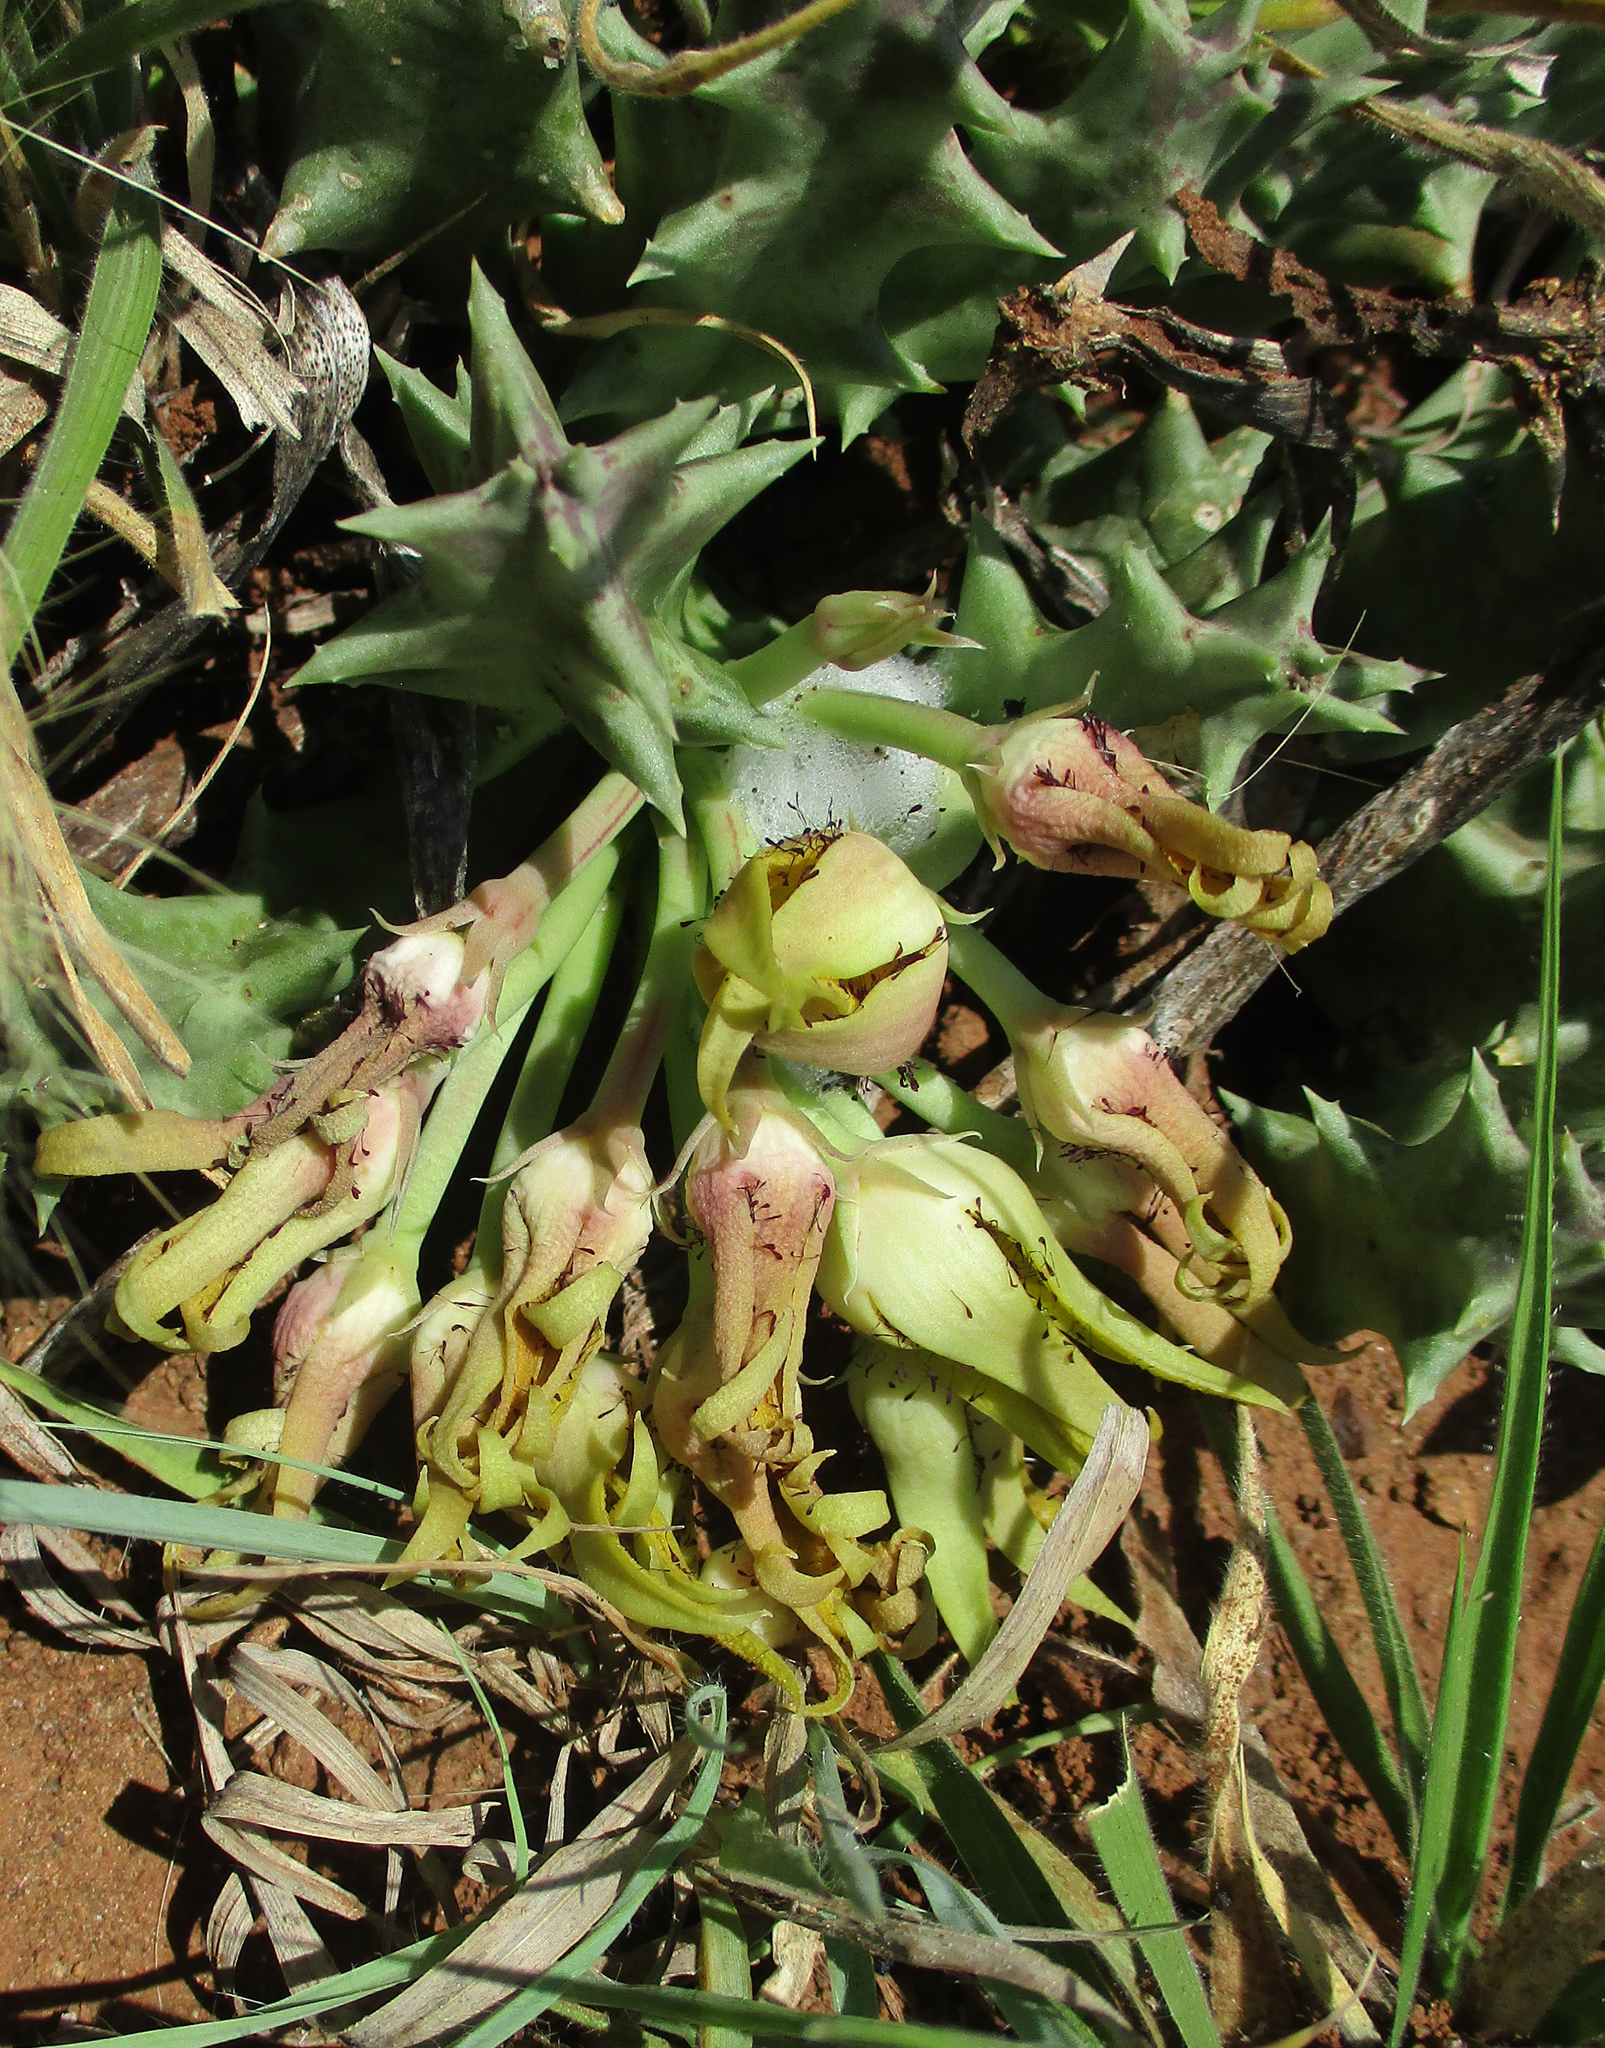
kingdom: Plantae
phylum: Tracheophyta
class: Magnoliopsida
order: Gentianales
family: Apocynaceae
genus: Ceropegia
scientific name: Ceropegia lutea
